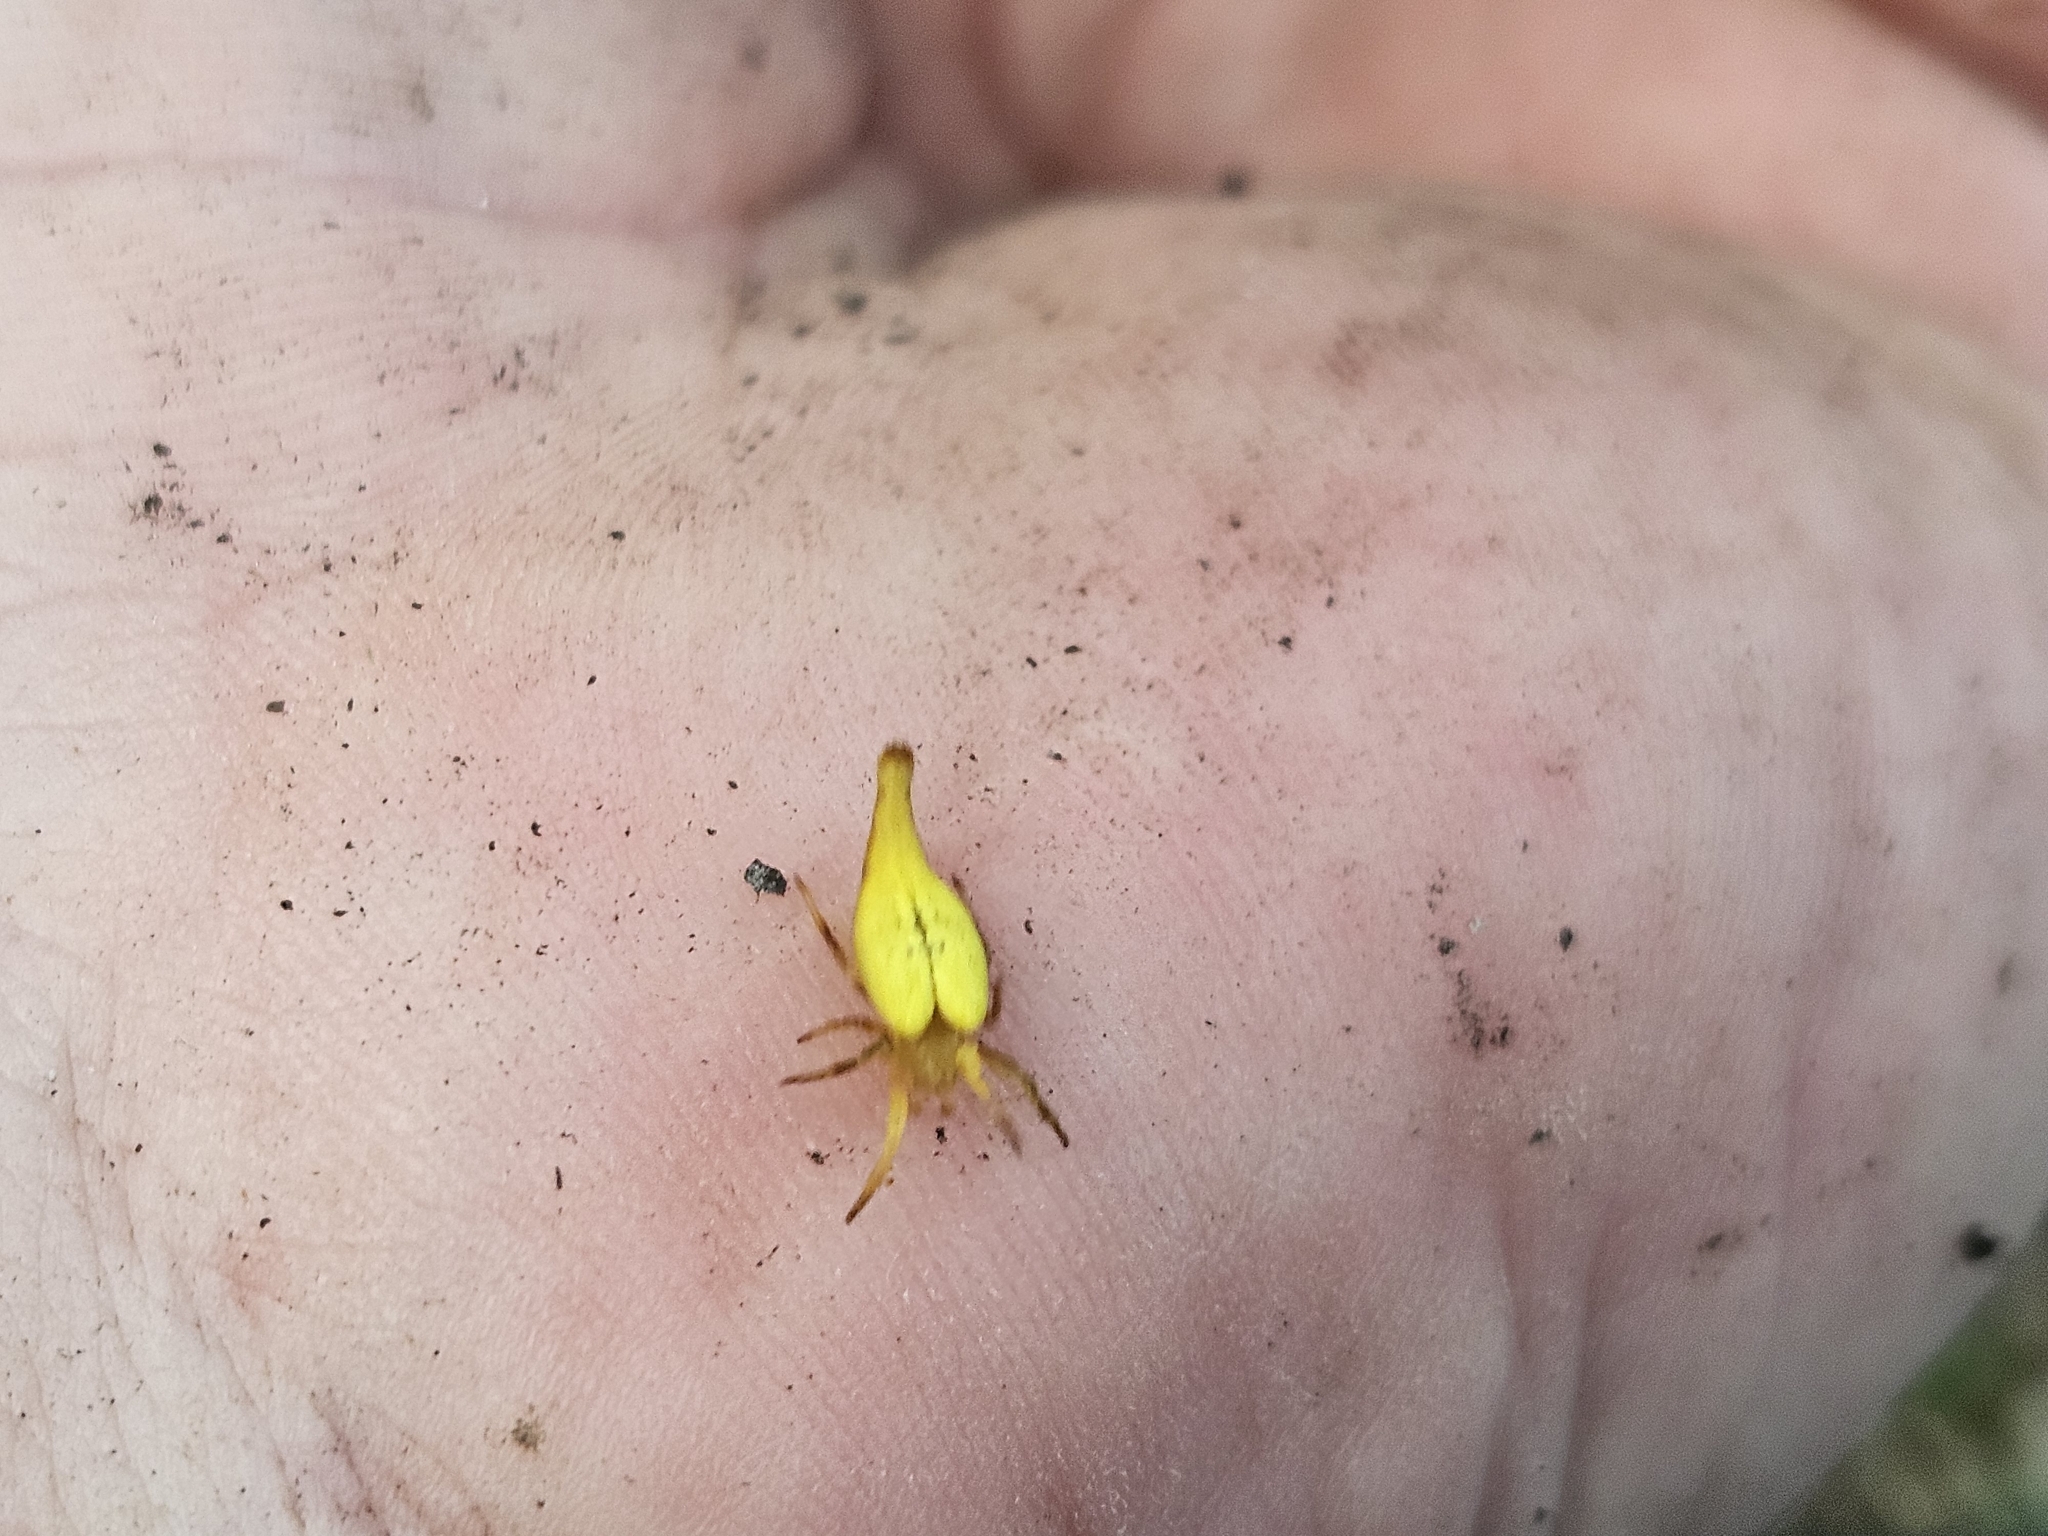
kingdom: Animalia
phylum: Arthropoda
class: Arachnida
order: Araneae
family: Araneidae
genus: Arachnura
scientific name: Arachnura feredayi
